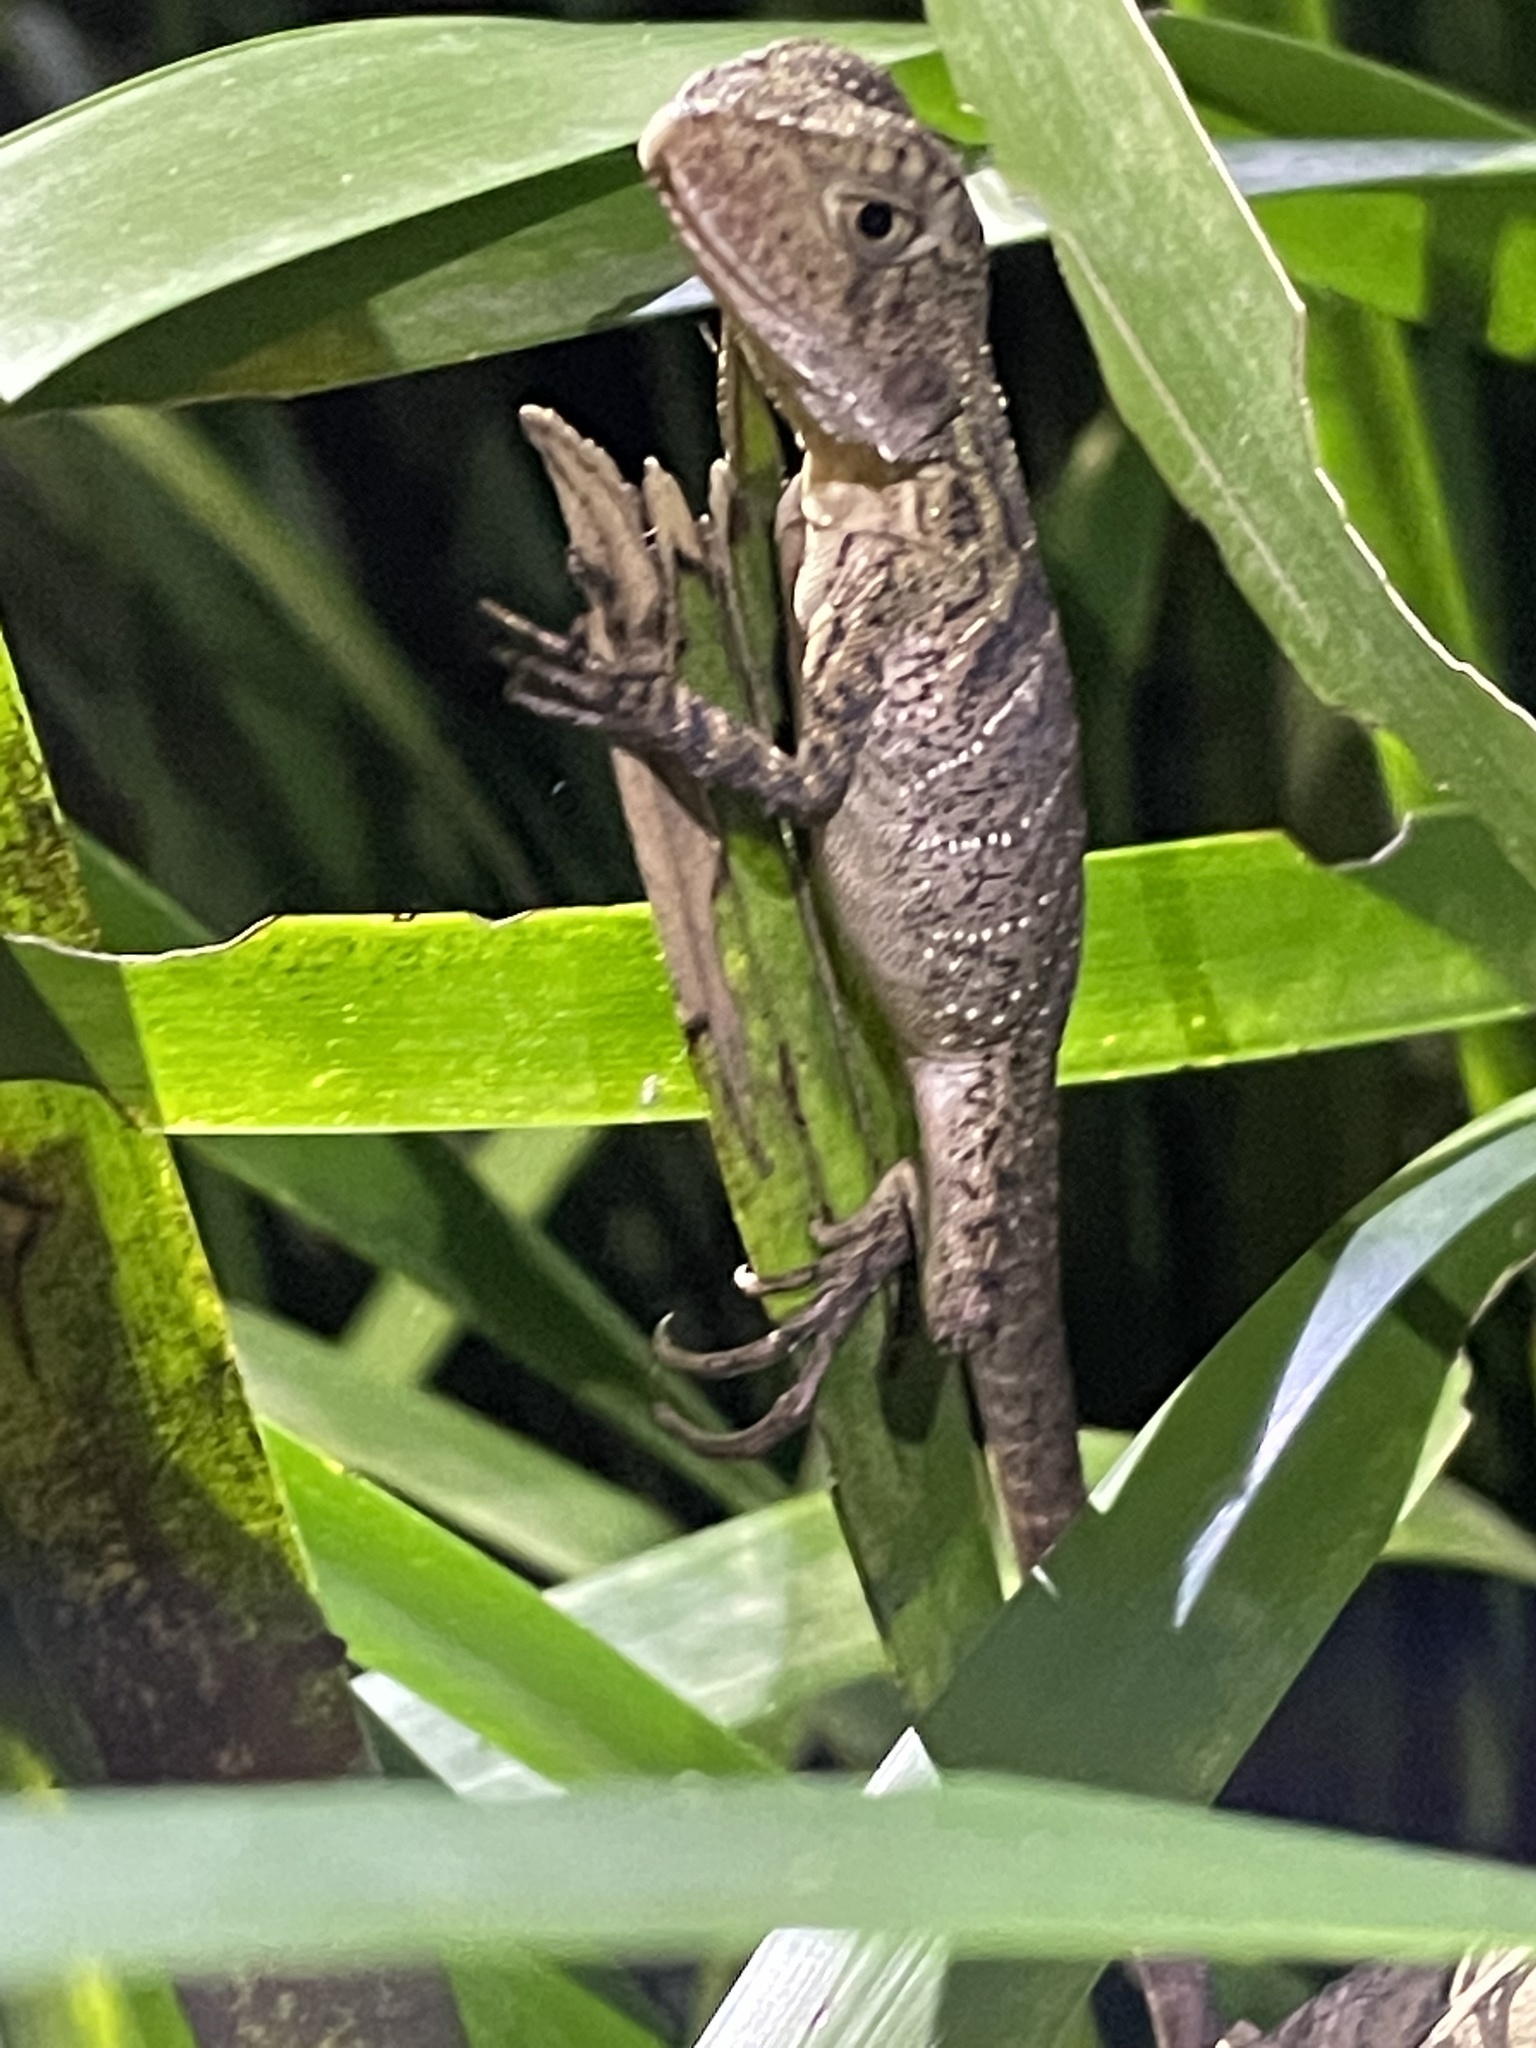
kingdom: Animalia
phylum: Chordata
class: Squamata
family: Agamidae
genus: Intellagama
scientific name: Intellagama lesueurii
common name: Eastern water dragon
